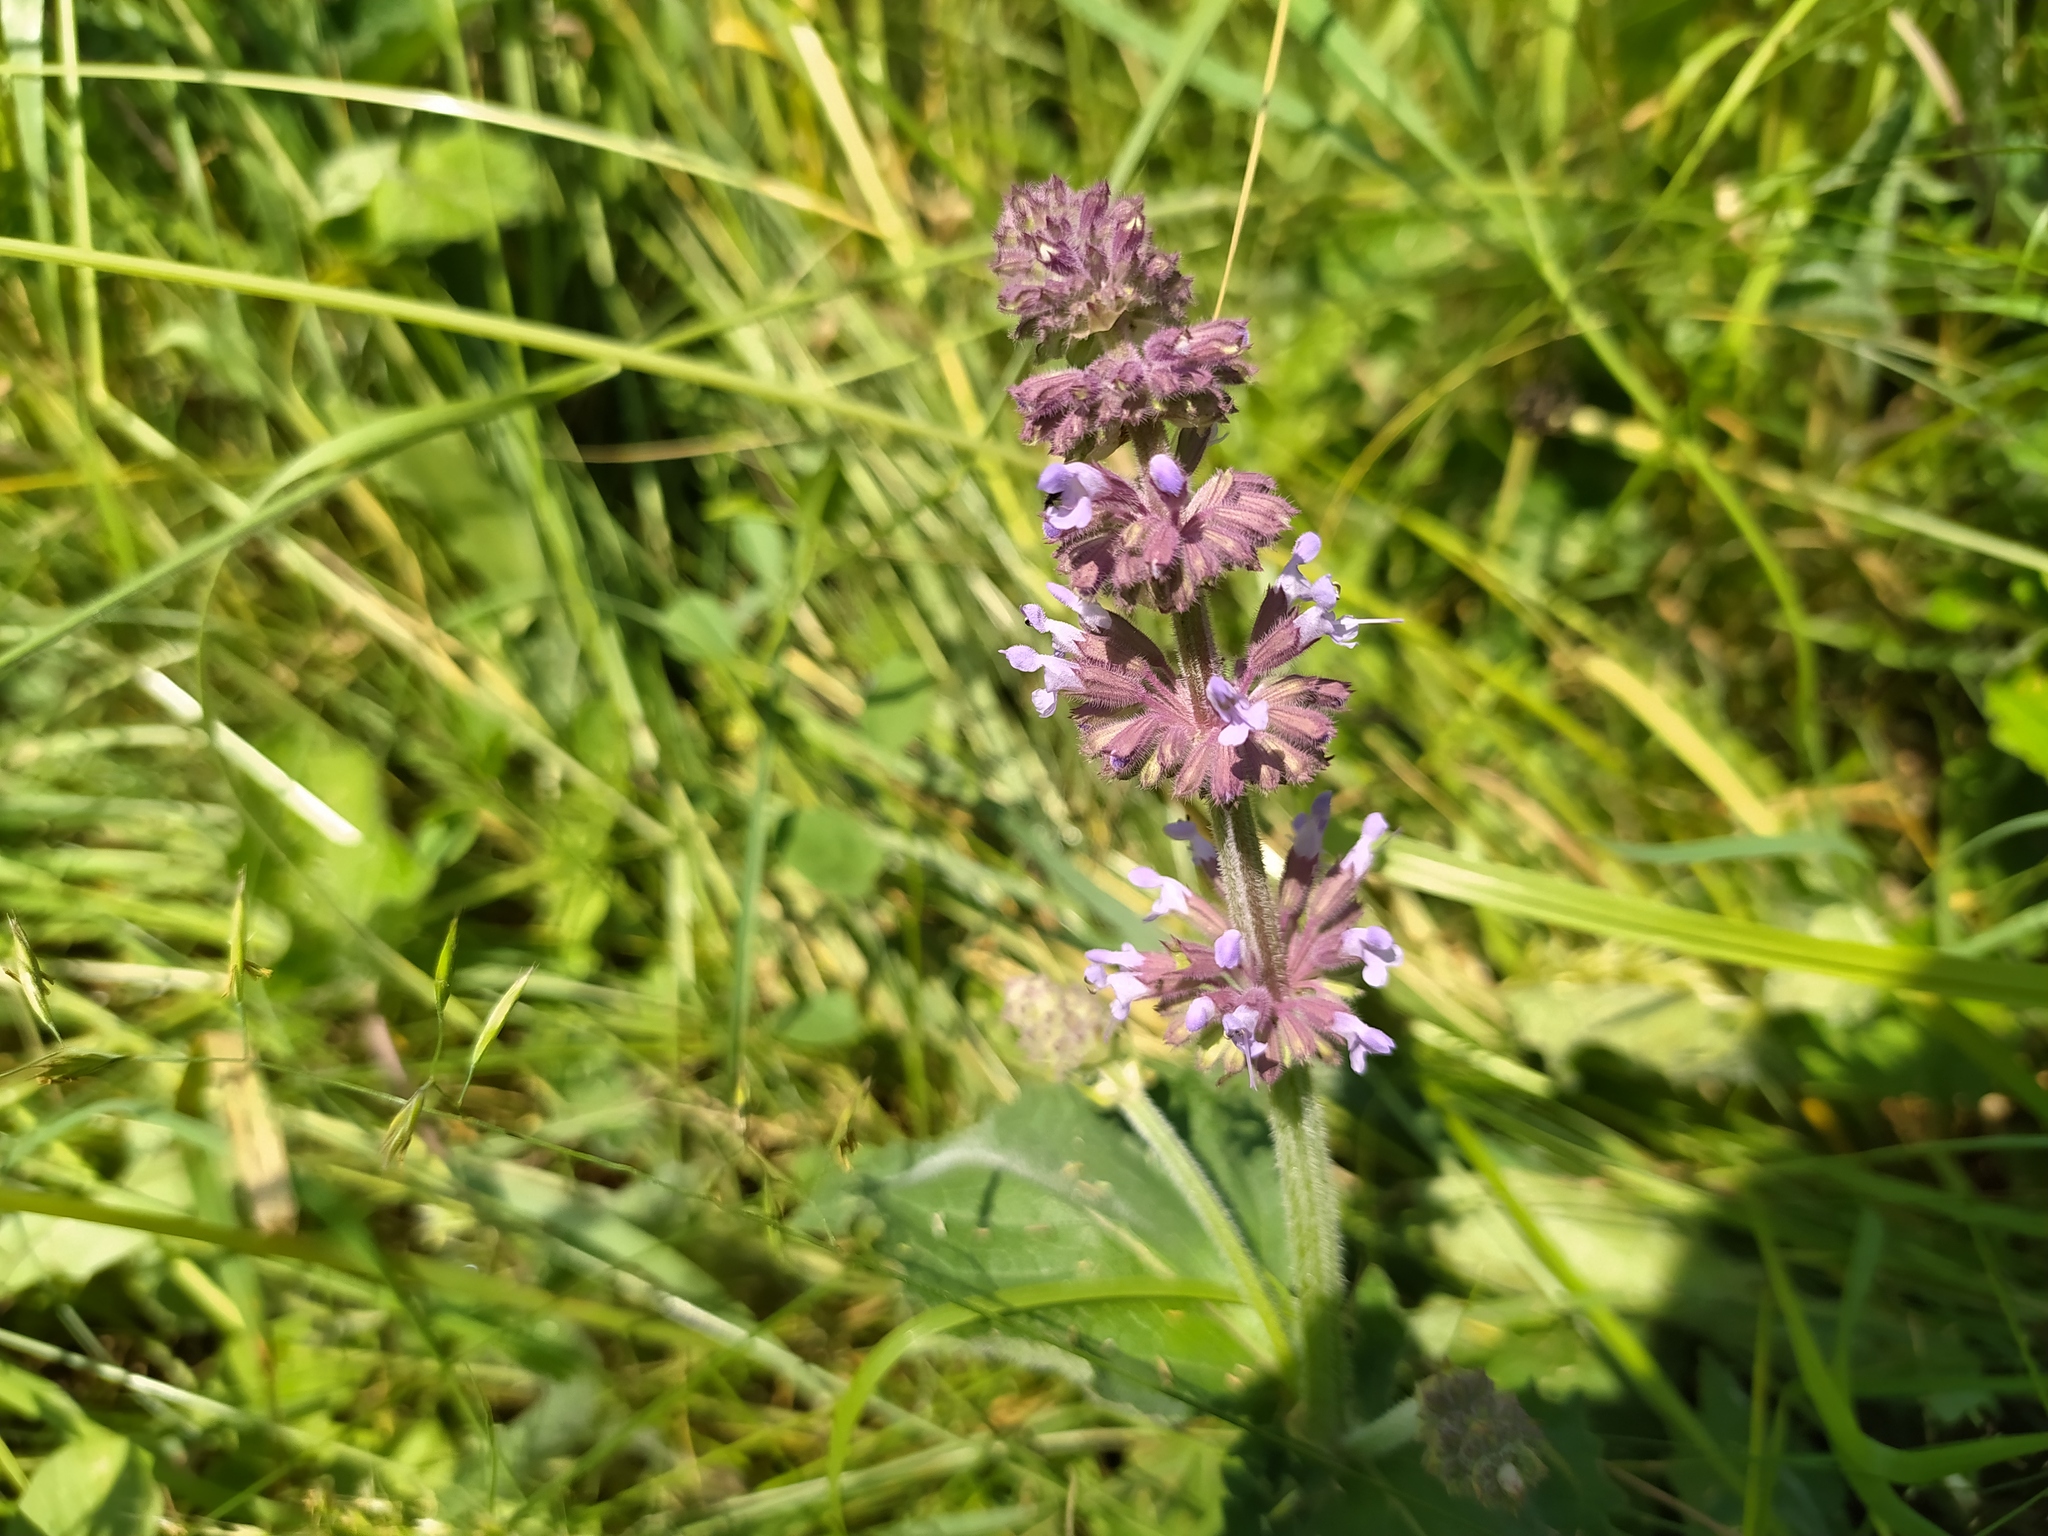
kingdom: Plantae
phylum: Tracheophyta
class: Magnoliopsida
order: Lamiales
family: Lamiaceae
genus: Salvia
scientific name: Salvia verticillata
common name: Whorled clary
